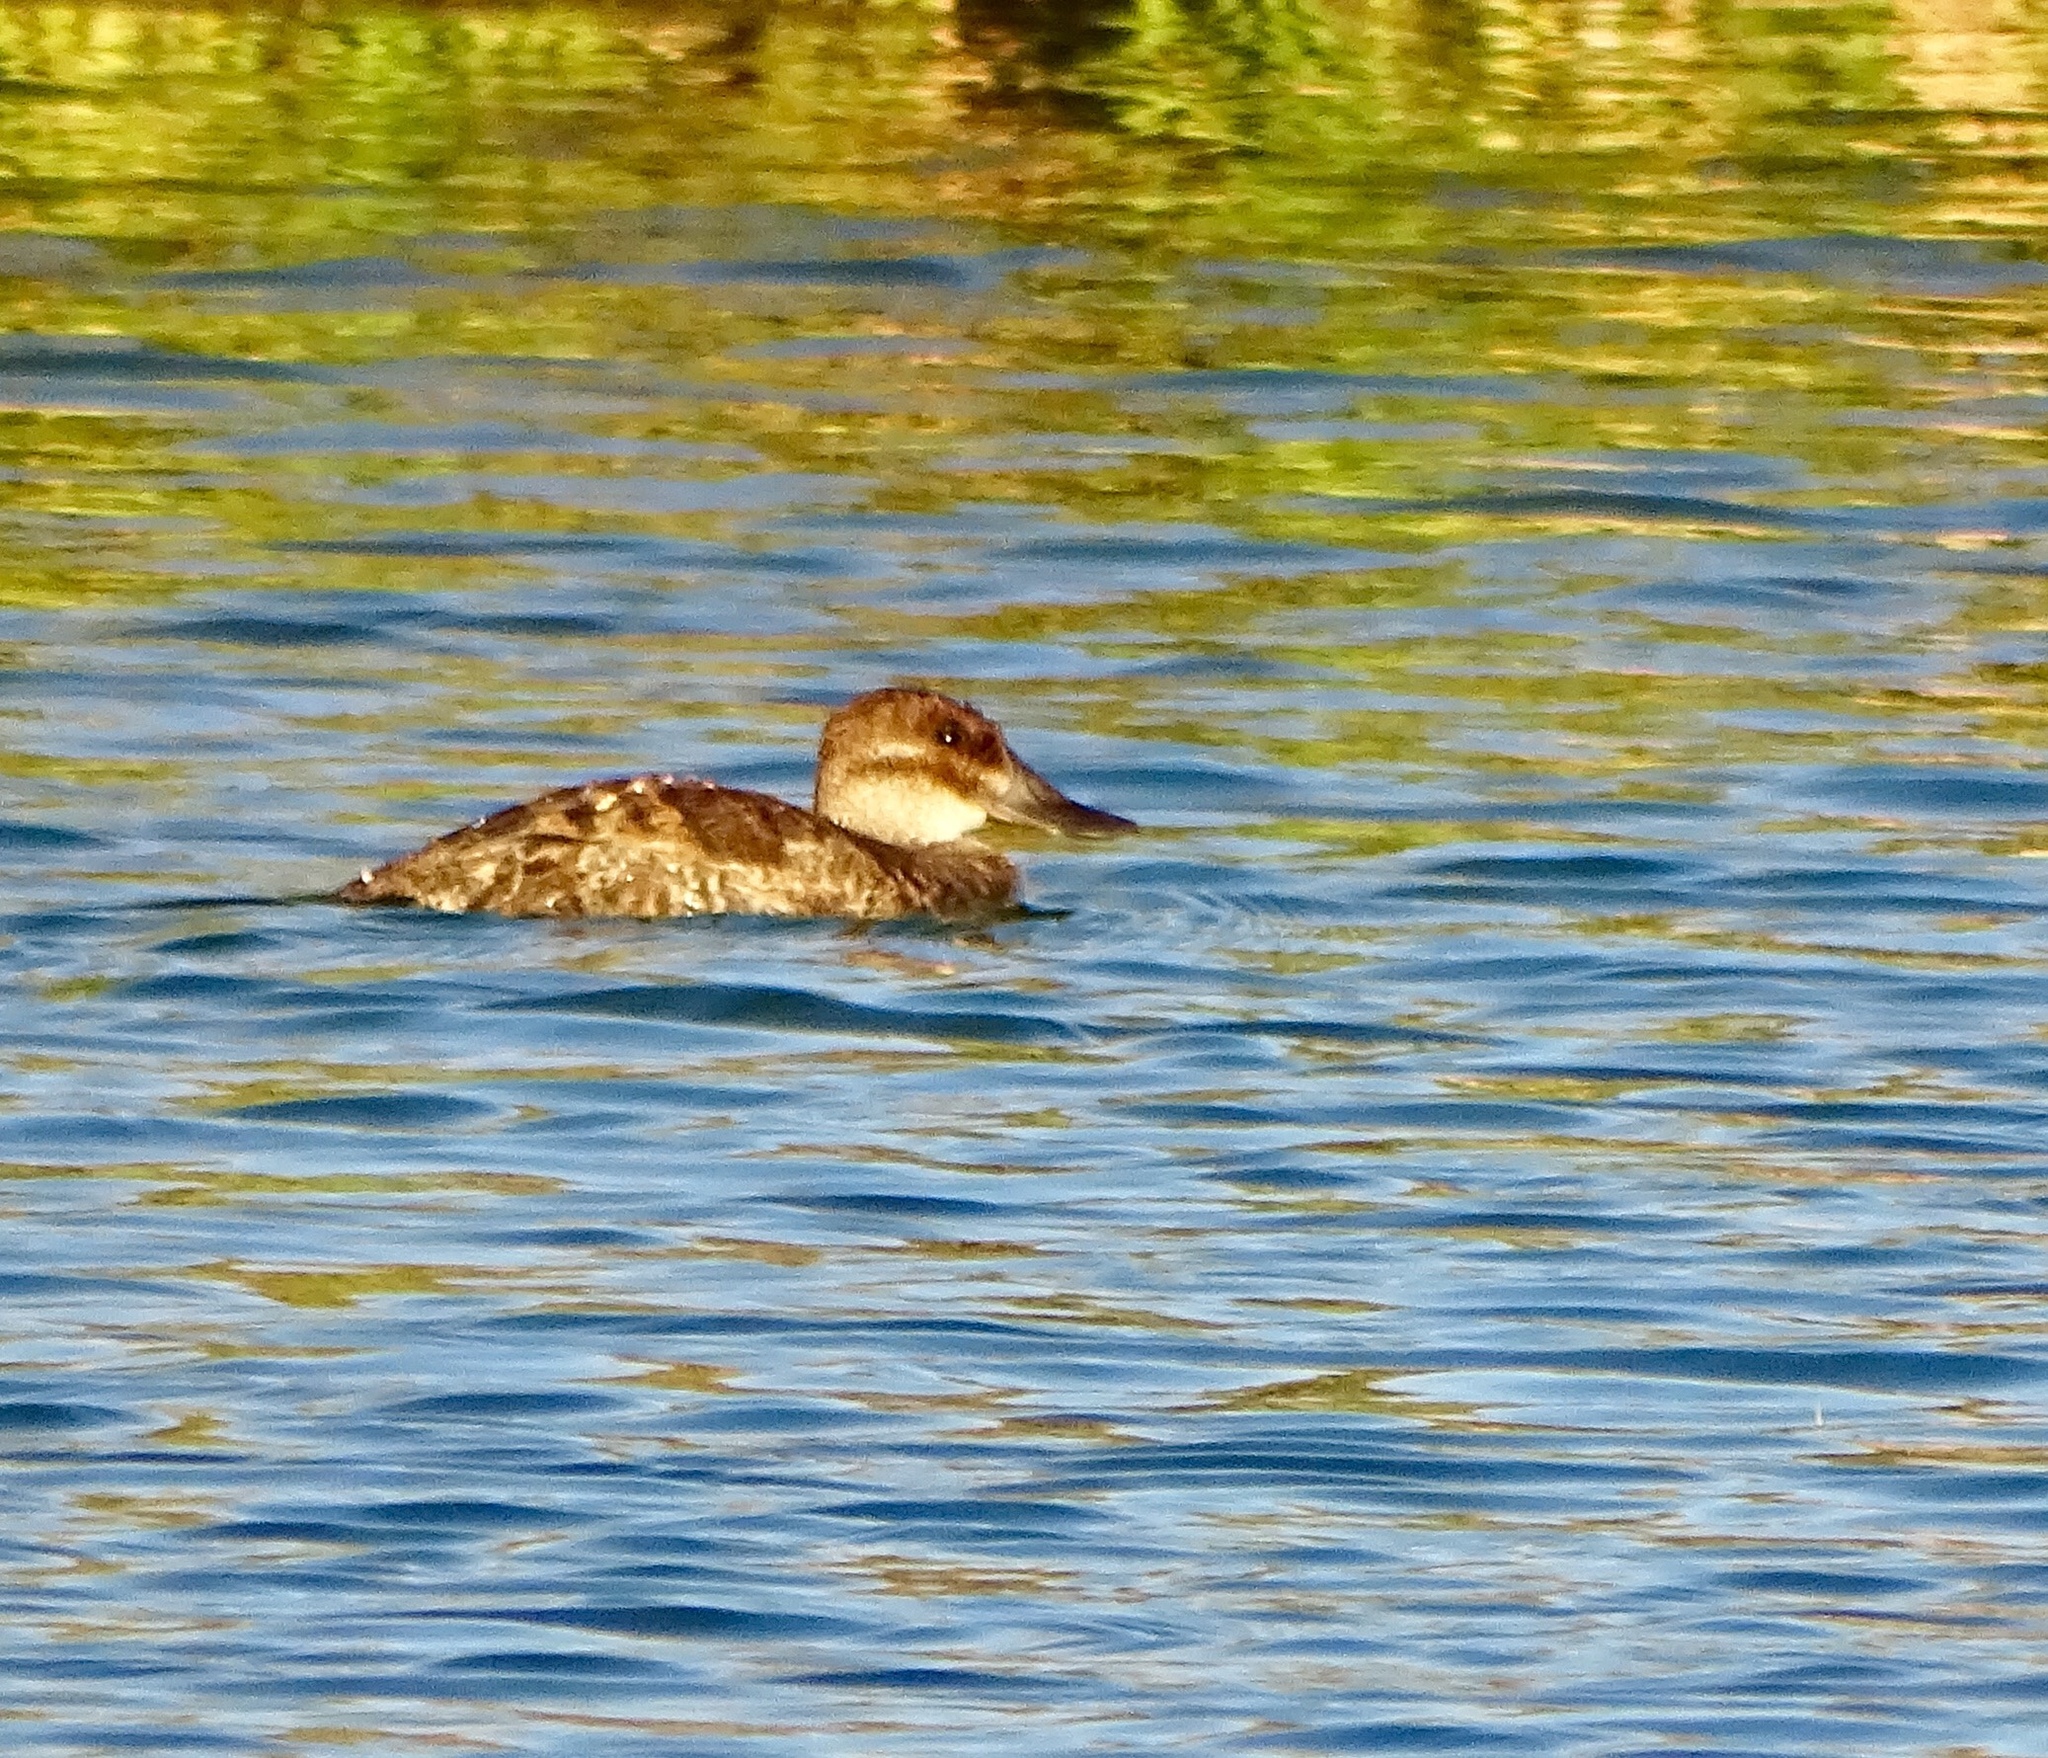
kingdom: Animalia
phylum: Chordata
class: Aves
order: Anseriformes
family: Anatidae
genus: Oxyura
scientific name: Oxyura jamaicensis
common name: Ruddy duck
